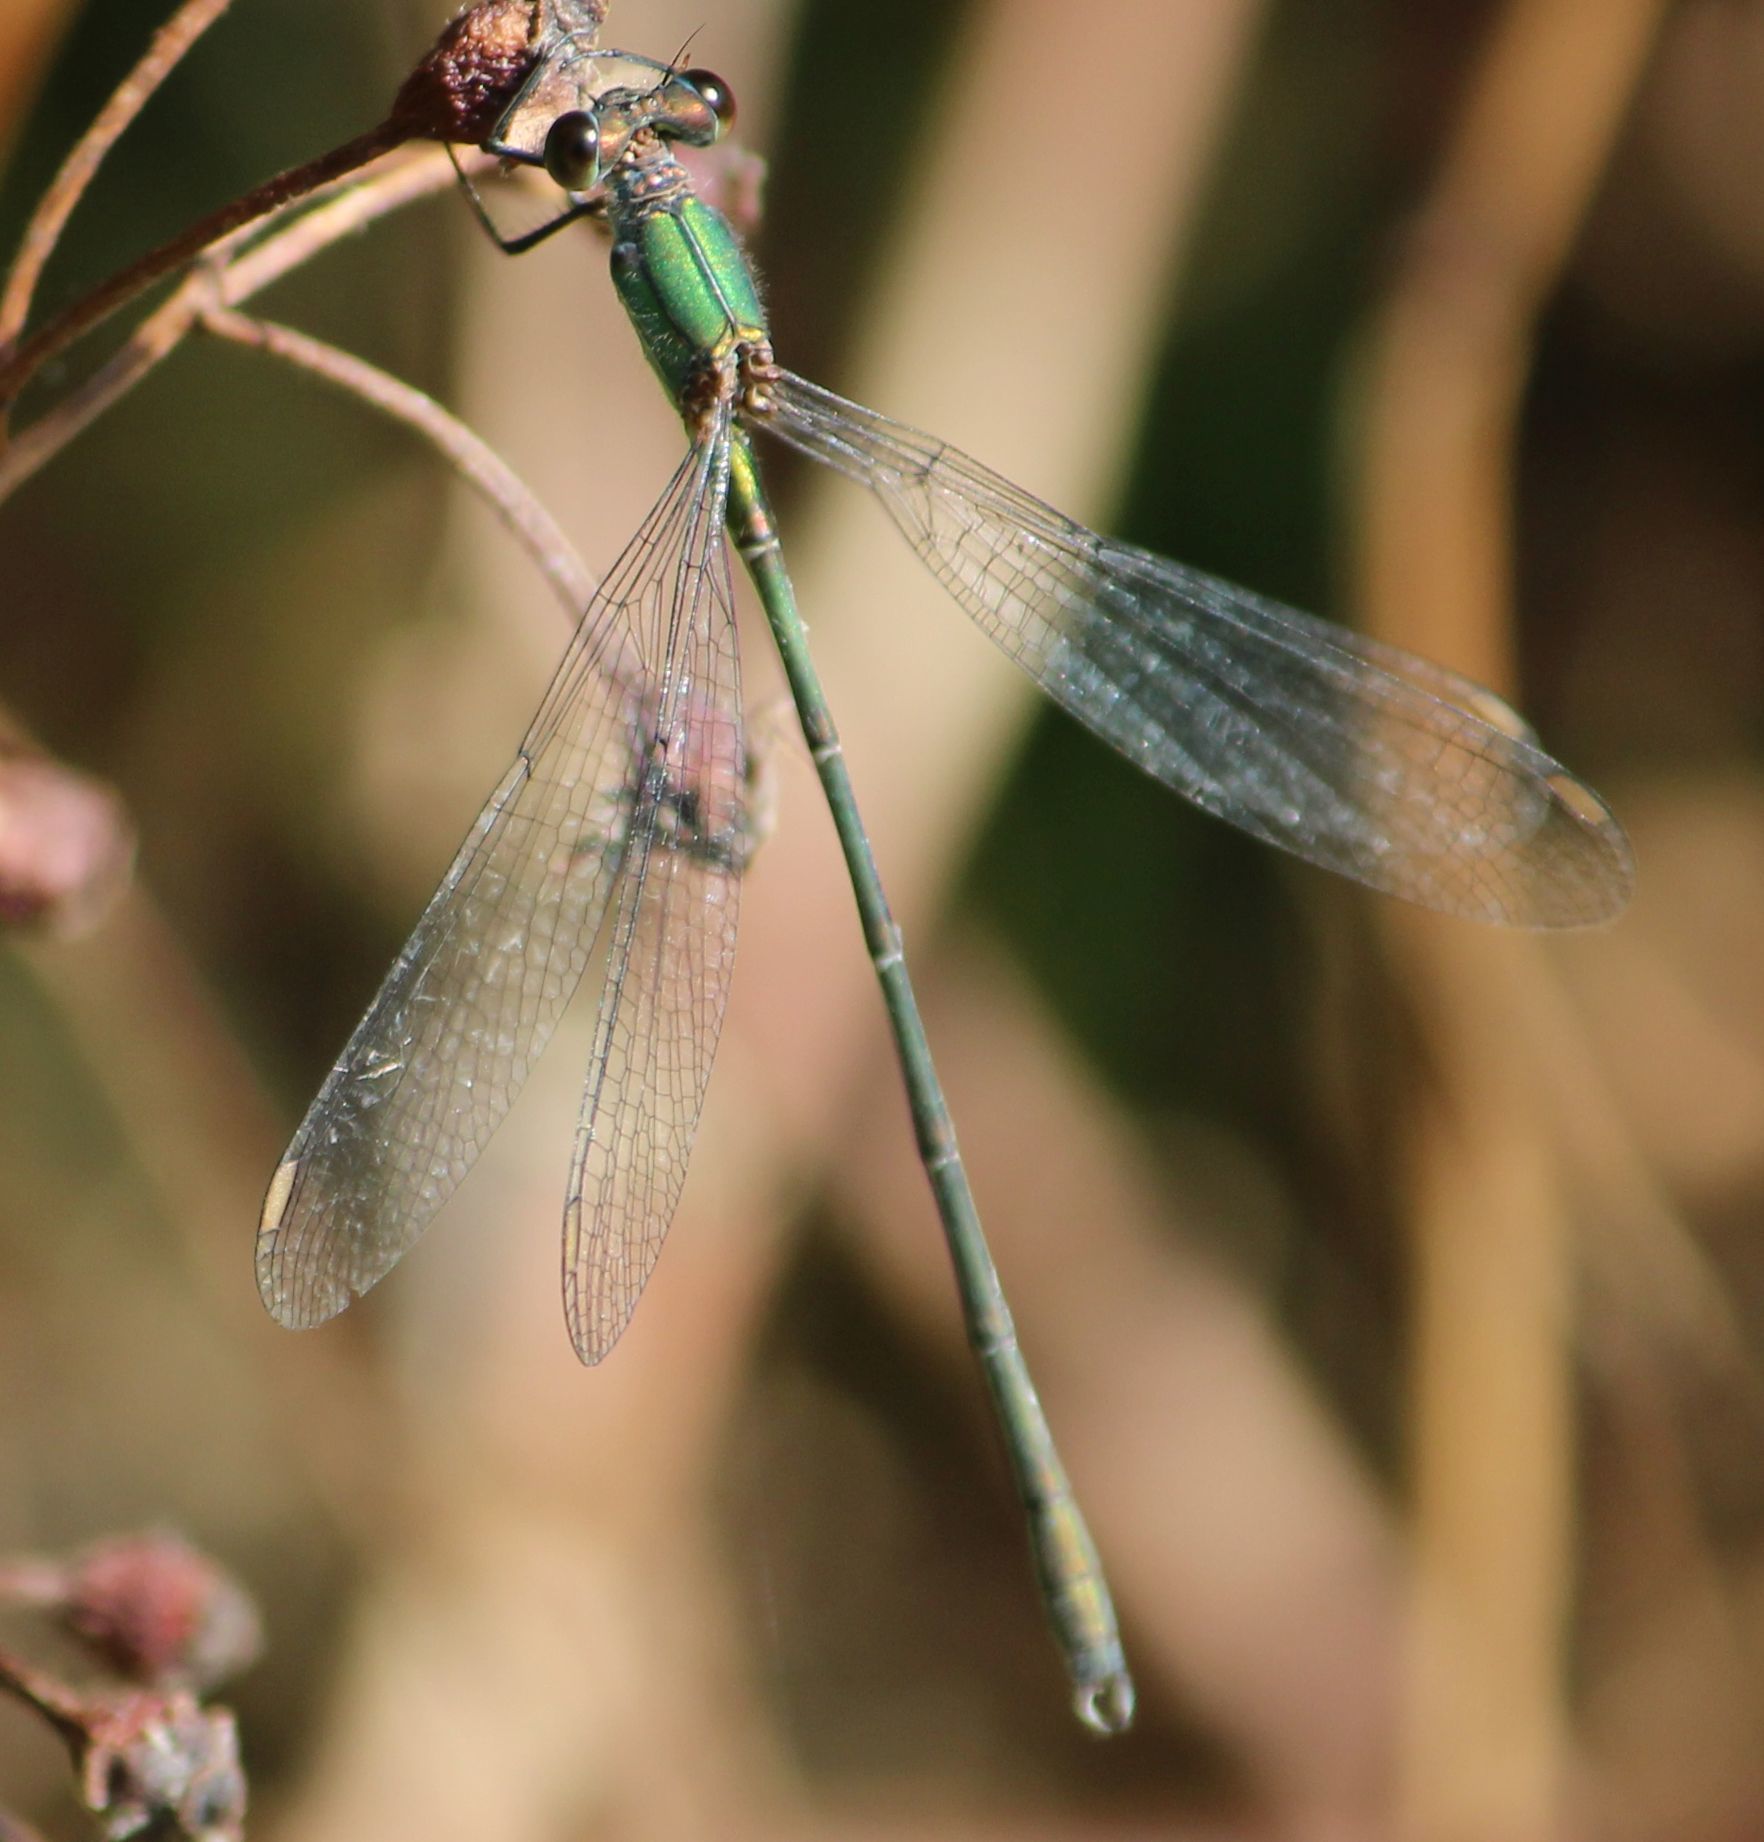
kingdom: Animalia
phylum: Arthropoda
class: Insecta
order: Odonata
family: Lestidae
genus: Chalcolestes
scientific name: Chalcolestes viridis
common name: Green emerald damselfly
